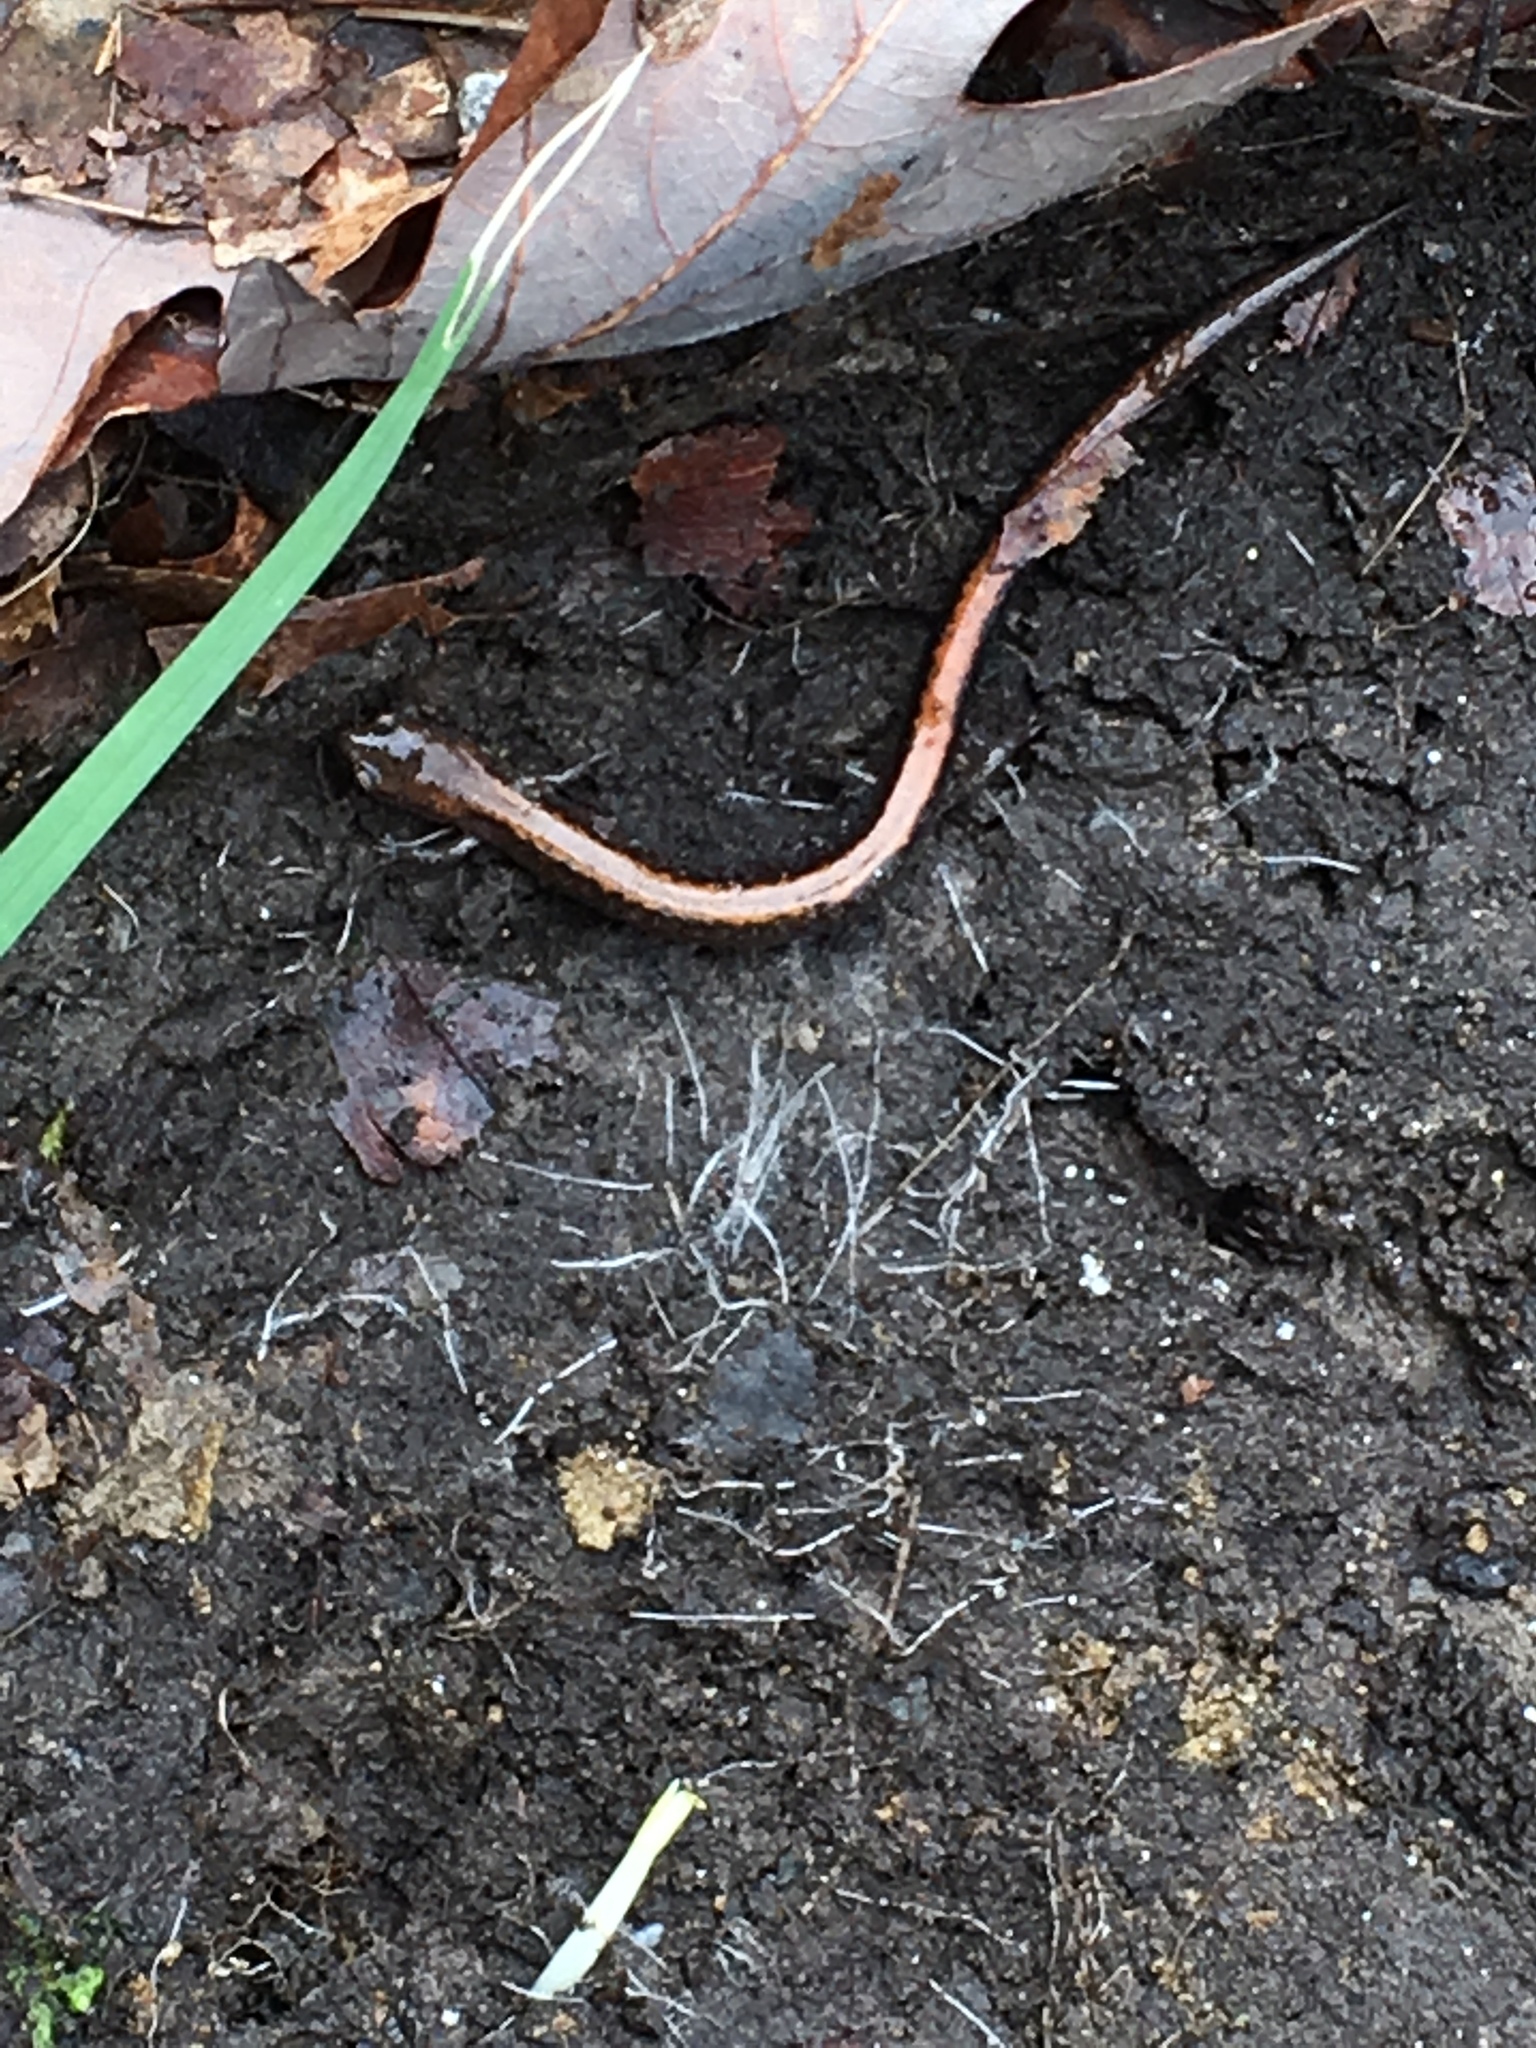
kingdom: Animalia
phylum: Chordata
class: Amphibia
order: Caudata
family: Plethodontidae
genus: Plethodon
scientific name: Plethodon cinereus
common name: Redback salamander
